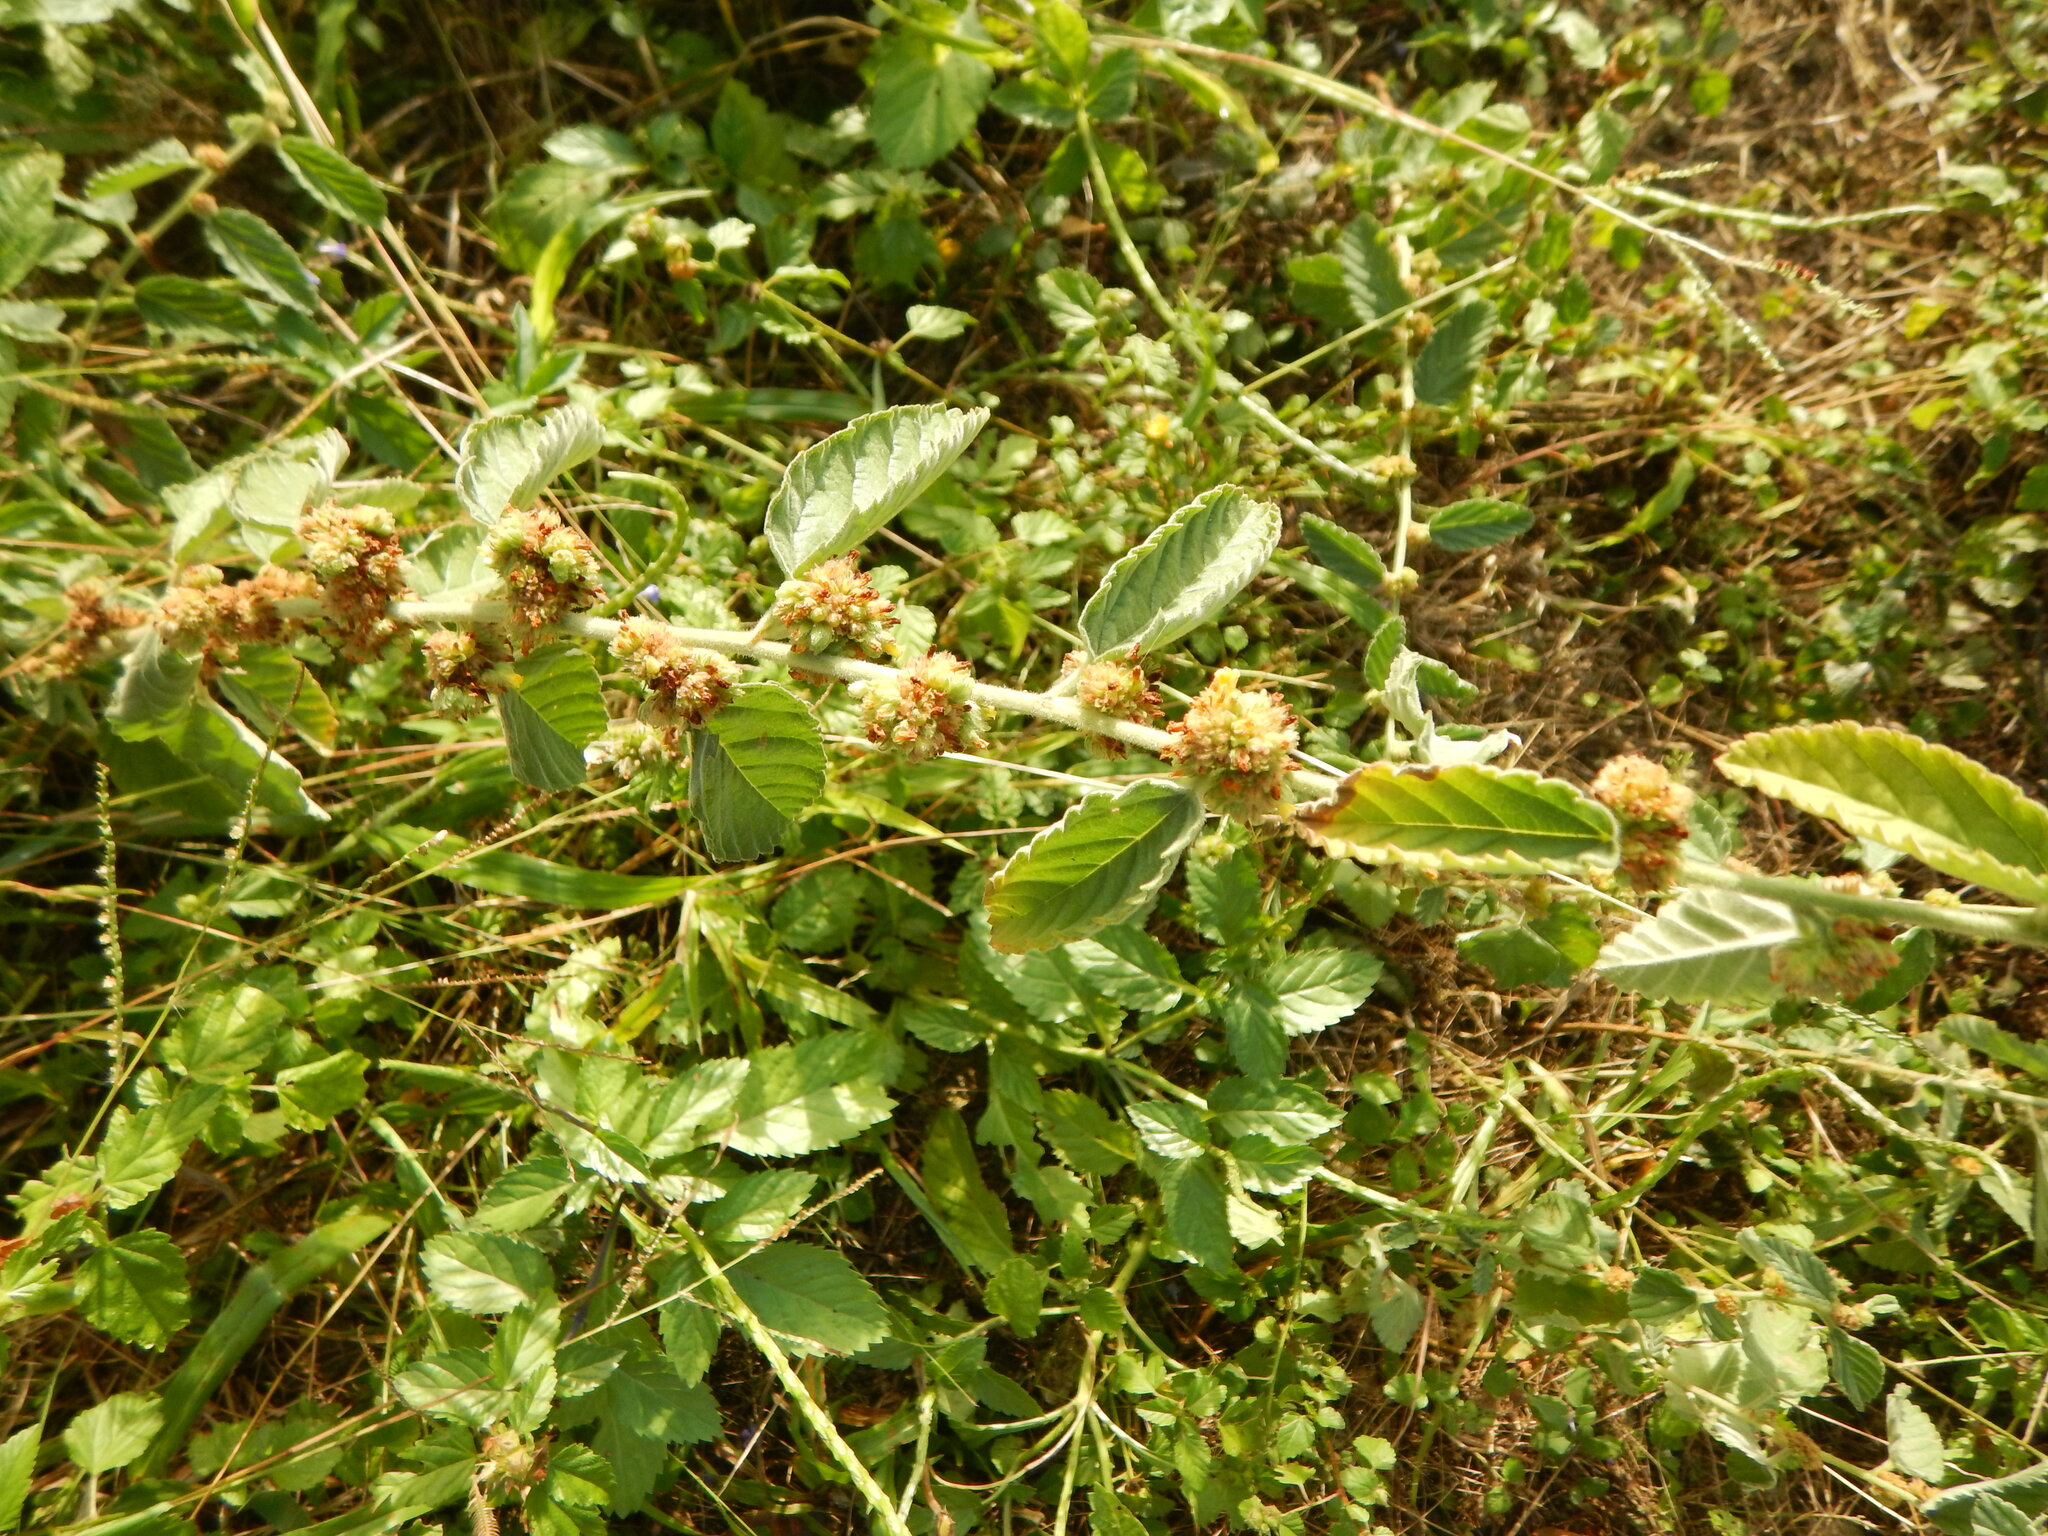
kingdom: Plantae
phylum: Tracheophyta
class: Magnoliopsida
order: Malvales
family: Malvaceae
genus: Waltheria
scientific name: Waltheria indica
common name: Leather-coat
